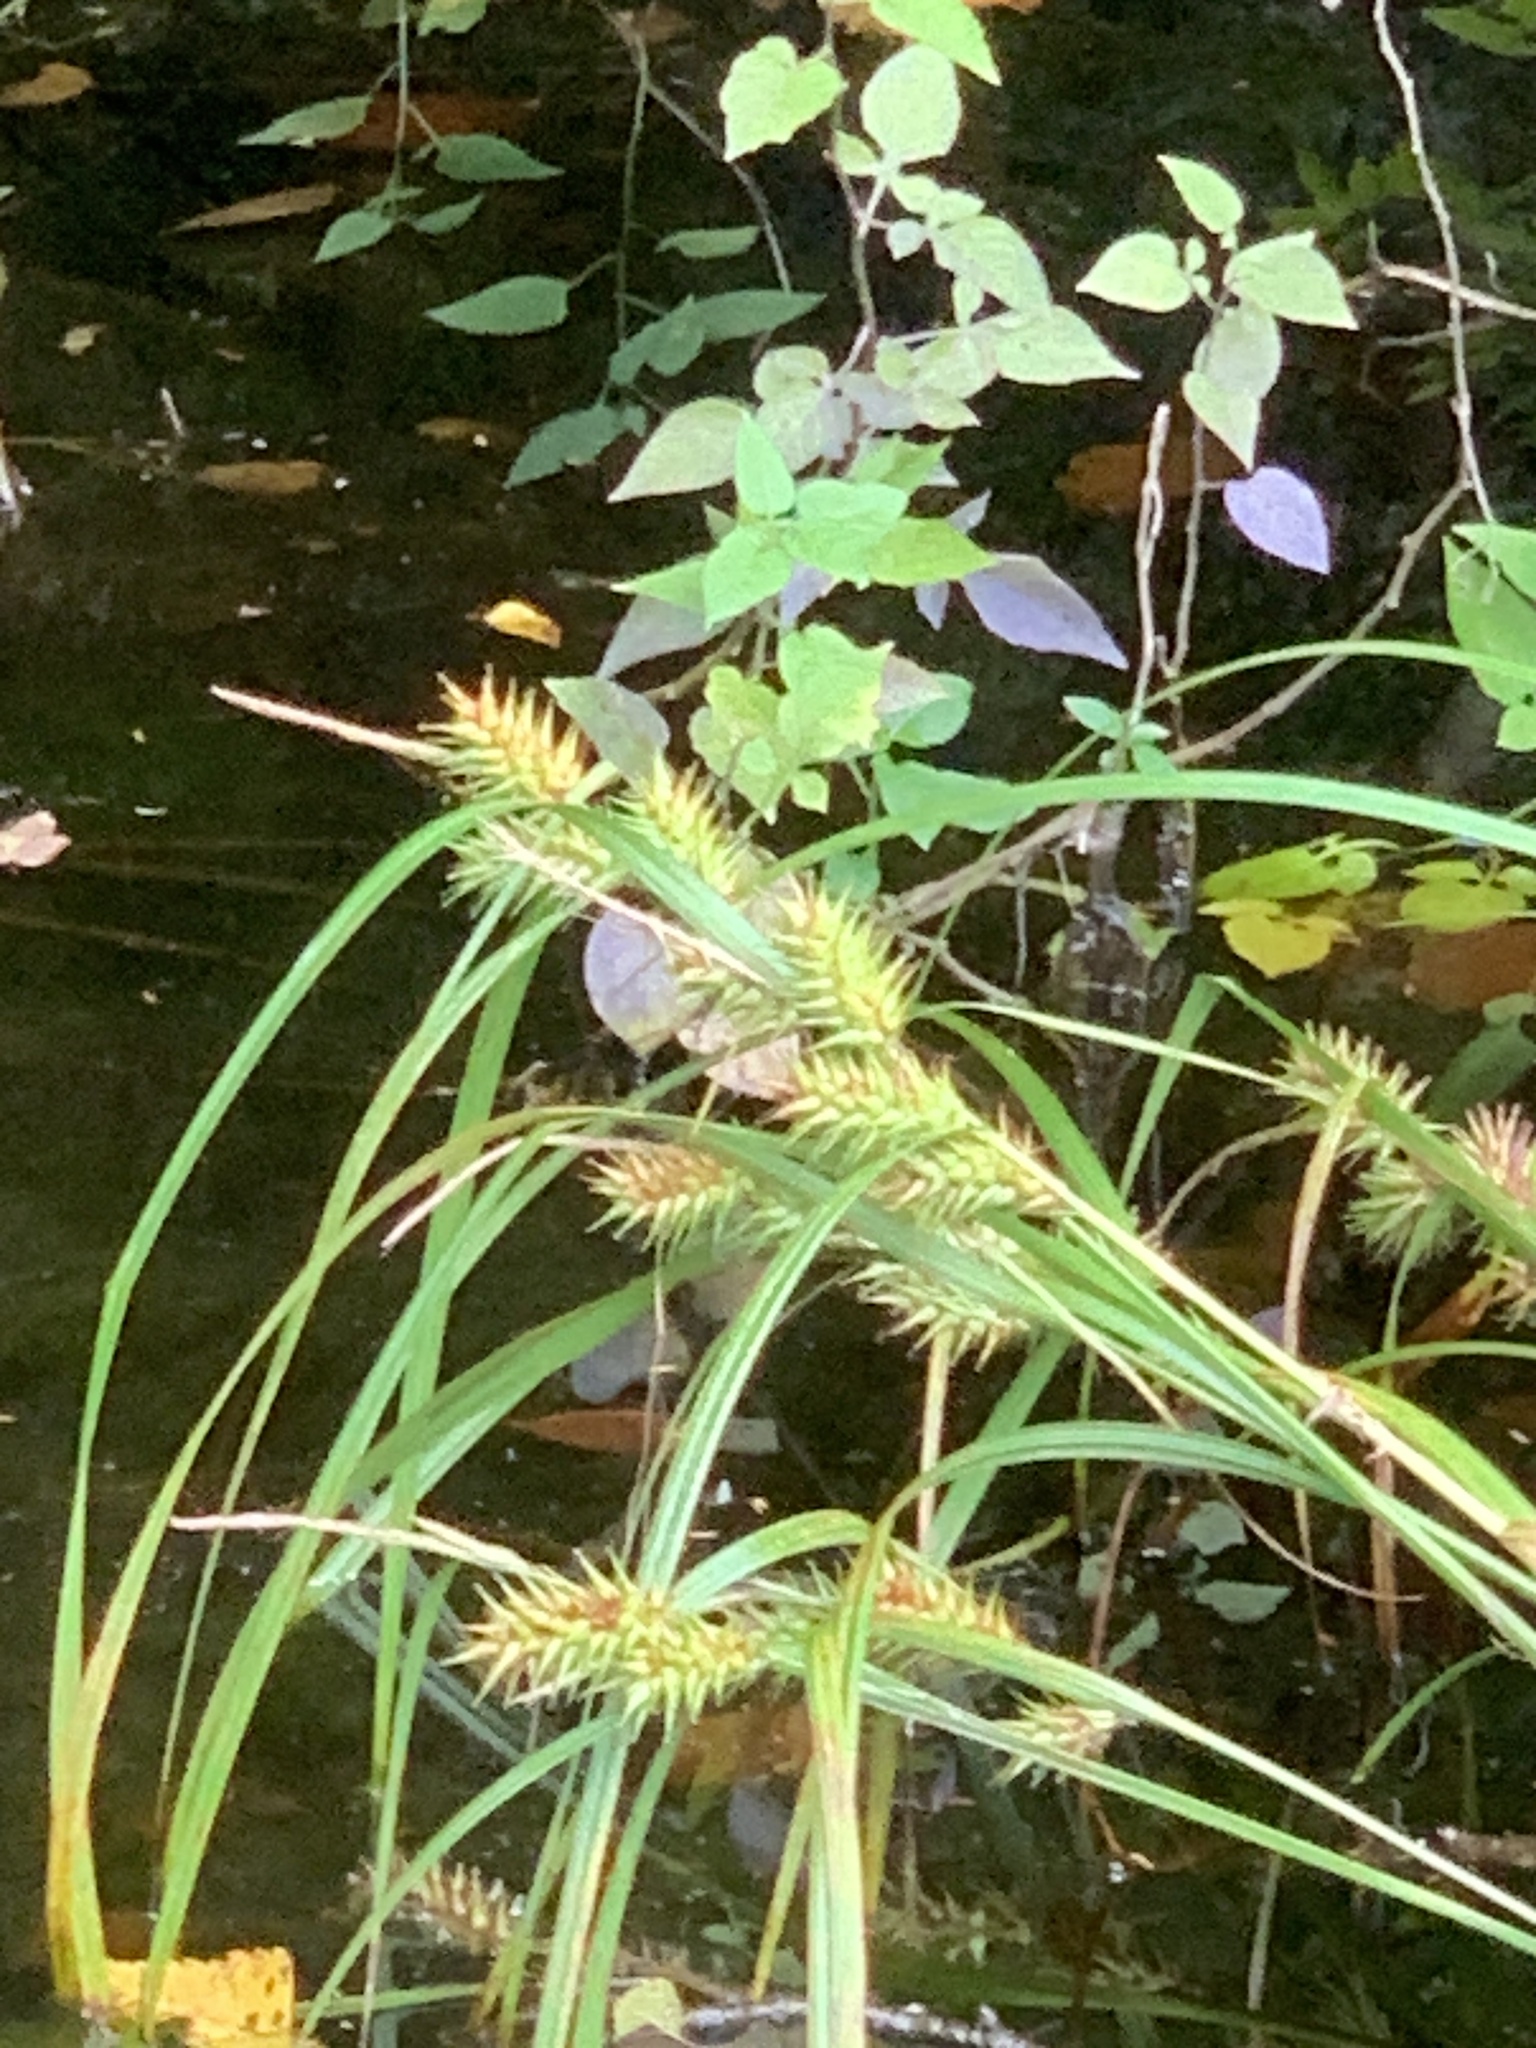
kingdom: Plantae
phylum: Tracheophyta
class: Liliopsida
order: Poales
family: Cyperaceae
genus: Carex
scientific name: Carex lupulina
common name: Hop sedge
